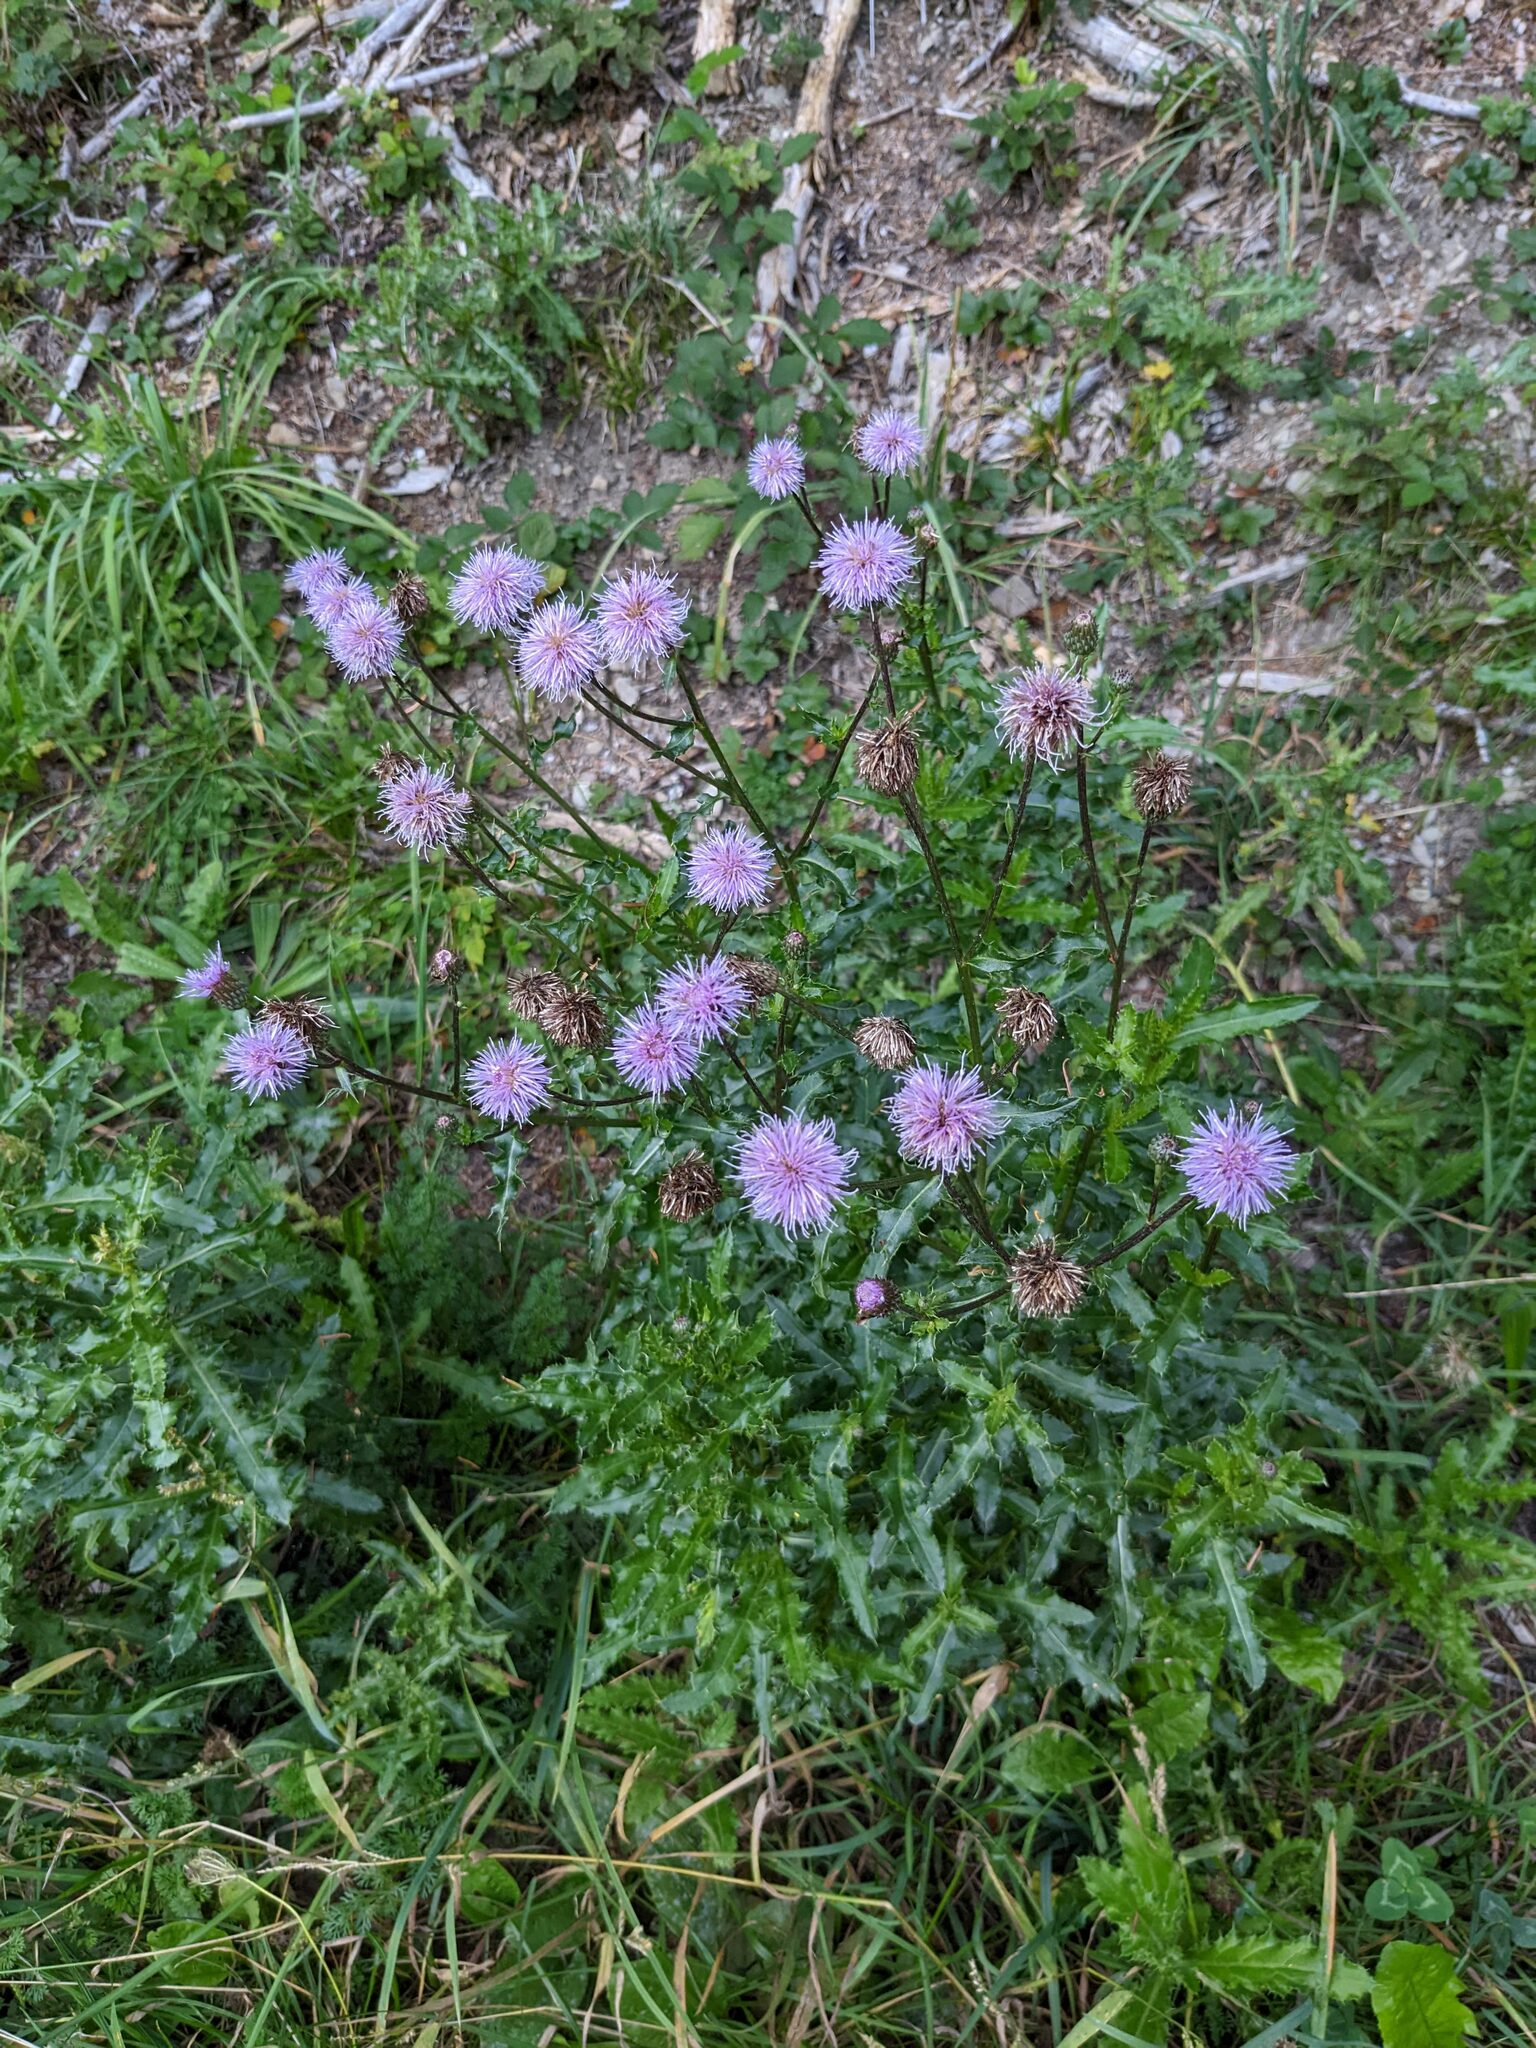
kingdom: Plantae
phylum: Tracheophyta
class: Magnoliopsida
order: Asterales
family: Asteraceae
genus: Cirsium
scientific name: Cirsium arvense
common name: Creeping thistle
